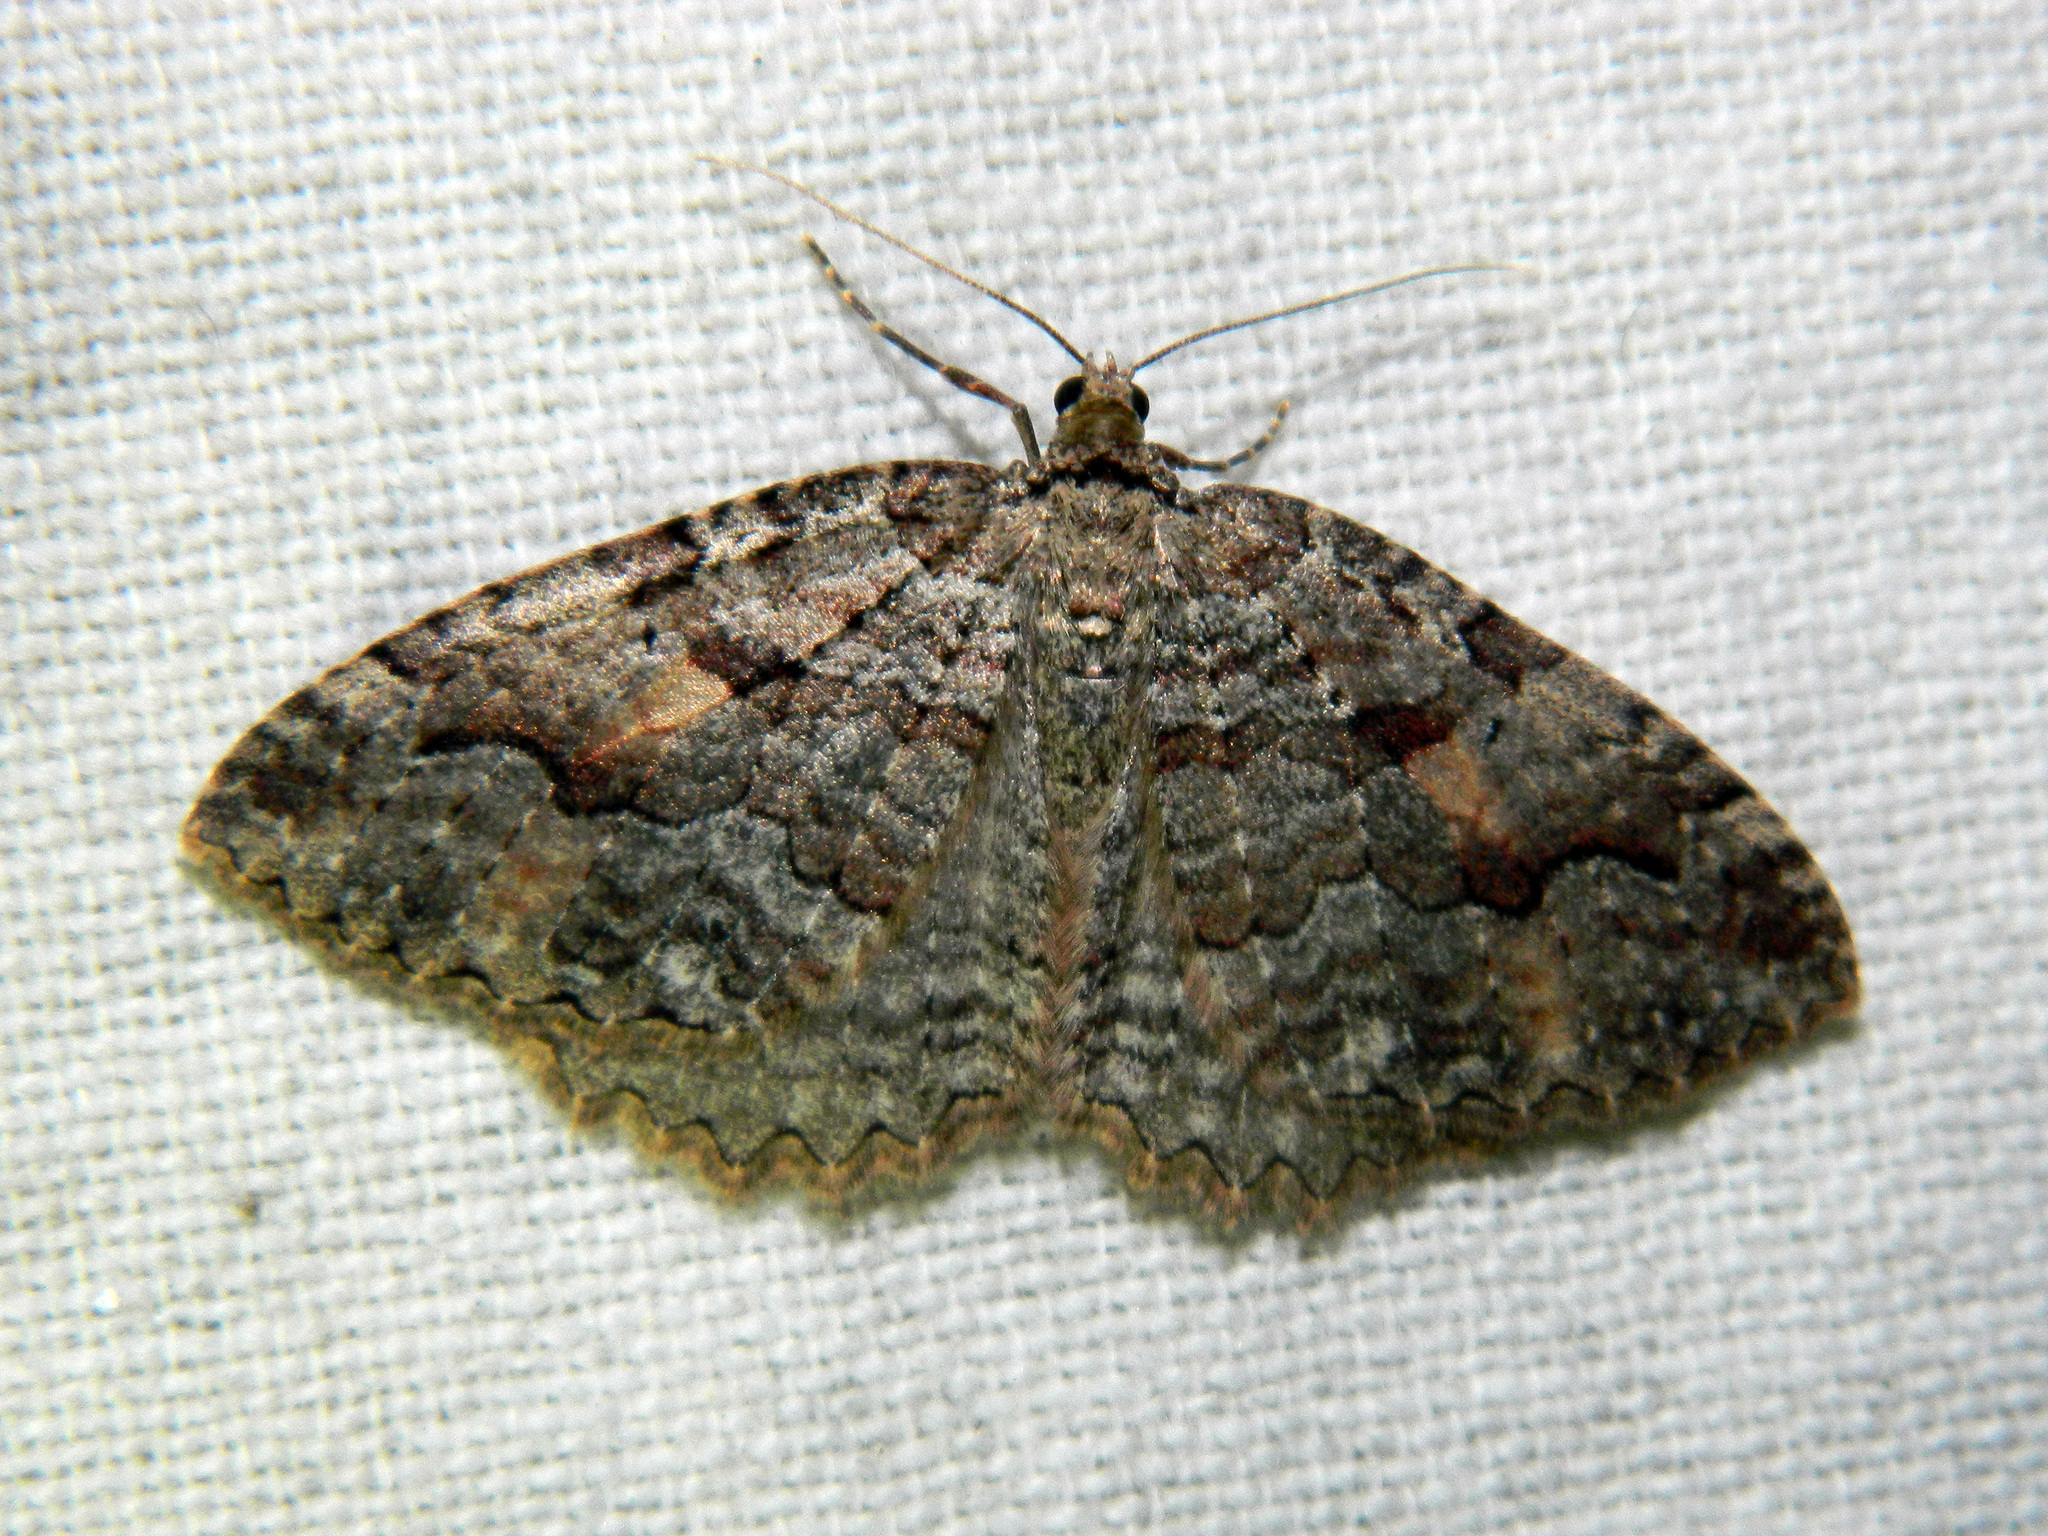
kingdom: Animalia
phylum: Arthropoda
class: Insecta
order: Lepidoptera
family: Geometridae
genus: Triphosa
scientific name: Triphosa haesitata
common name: Tissue moth
